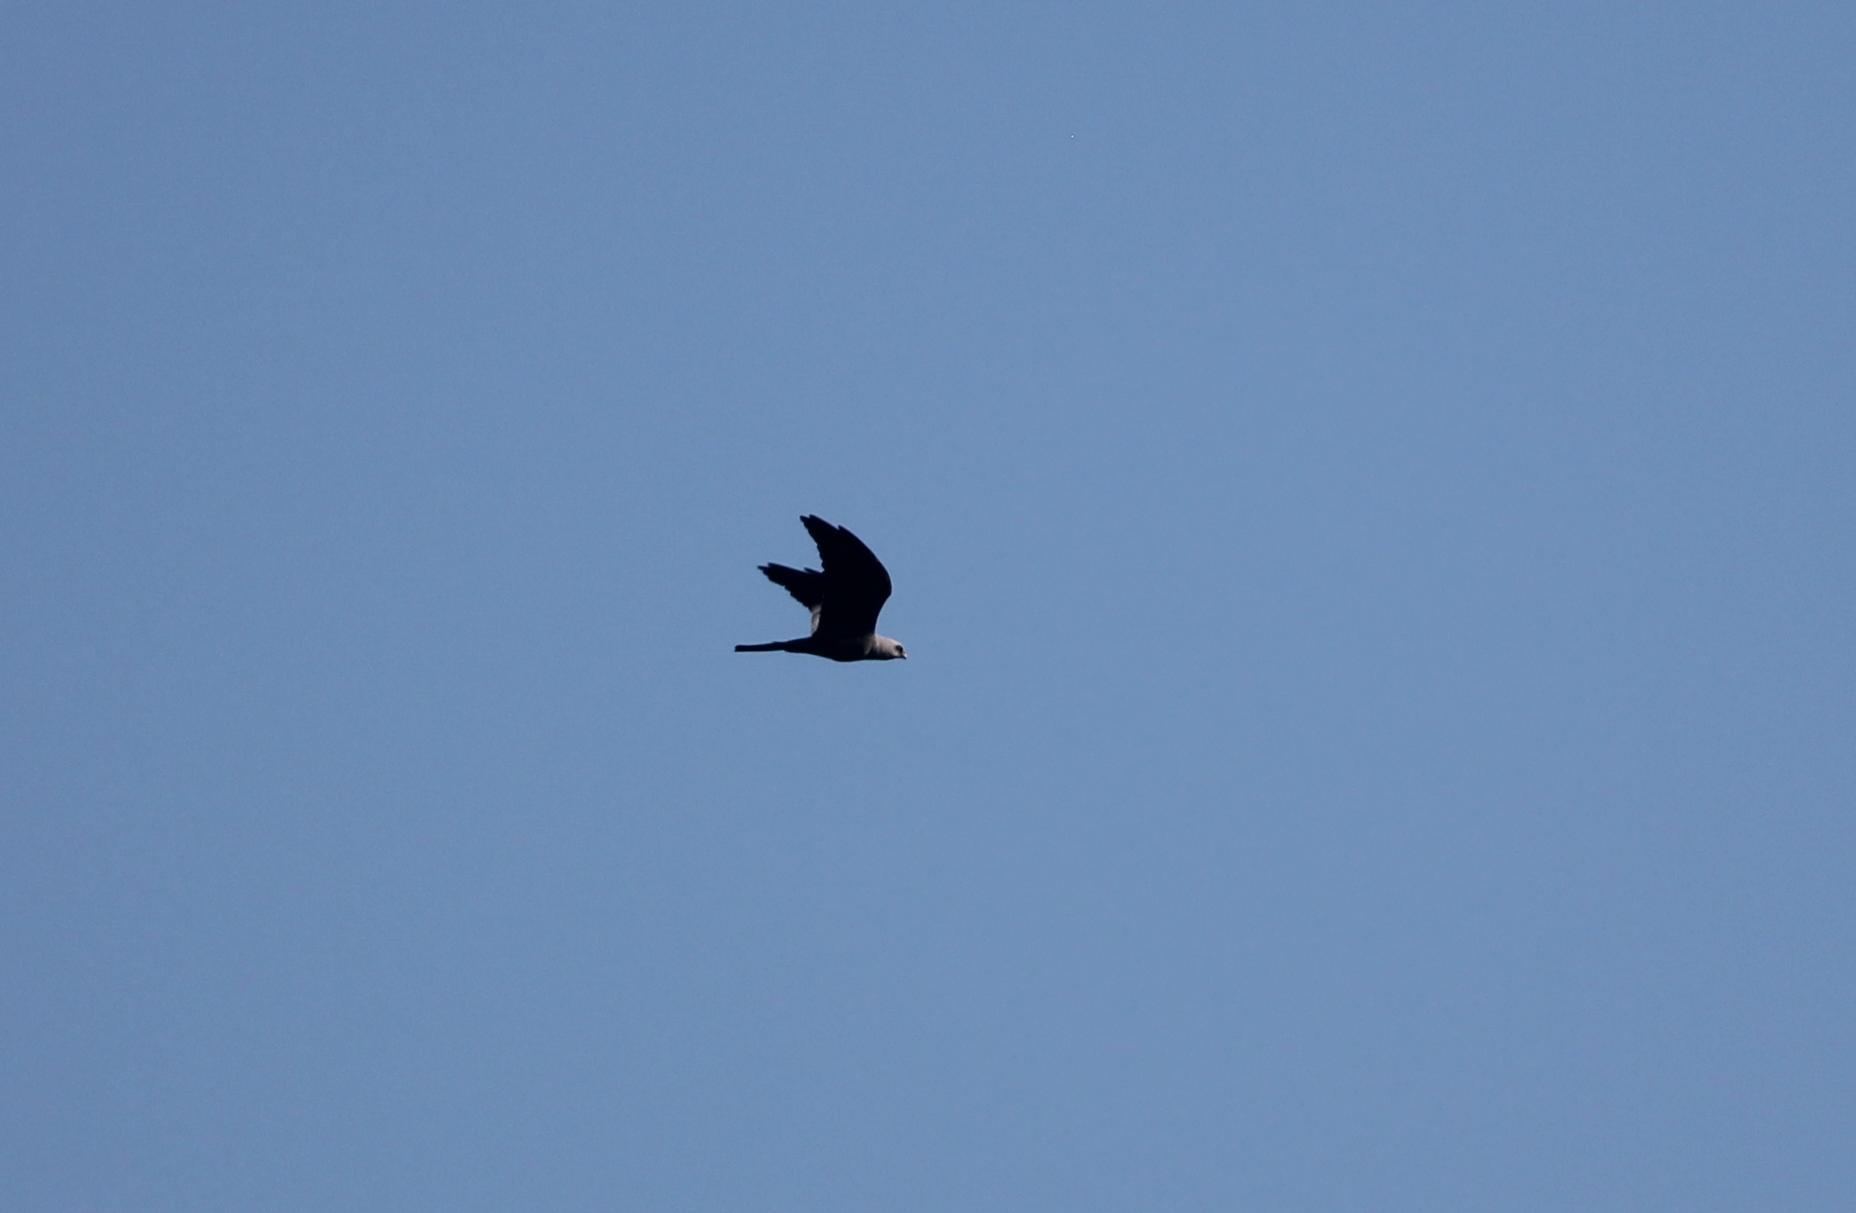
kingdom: Animalia
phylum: Chordata
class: Aves
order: Accipitriformes
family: Accipitridae
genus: Ictinia
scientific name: Ictinia mississippiensis
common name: Mississippi kite
